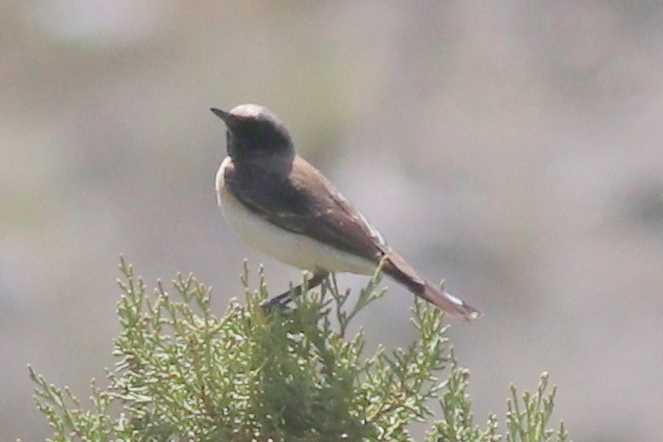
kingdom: Animalia
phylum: Chordata
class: Aves
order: Passeriformes
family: Muscicapidae
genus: Oenanthe
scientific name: Oenanthe pleschanka
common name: Pied wheatear
